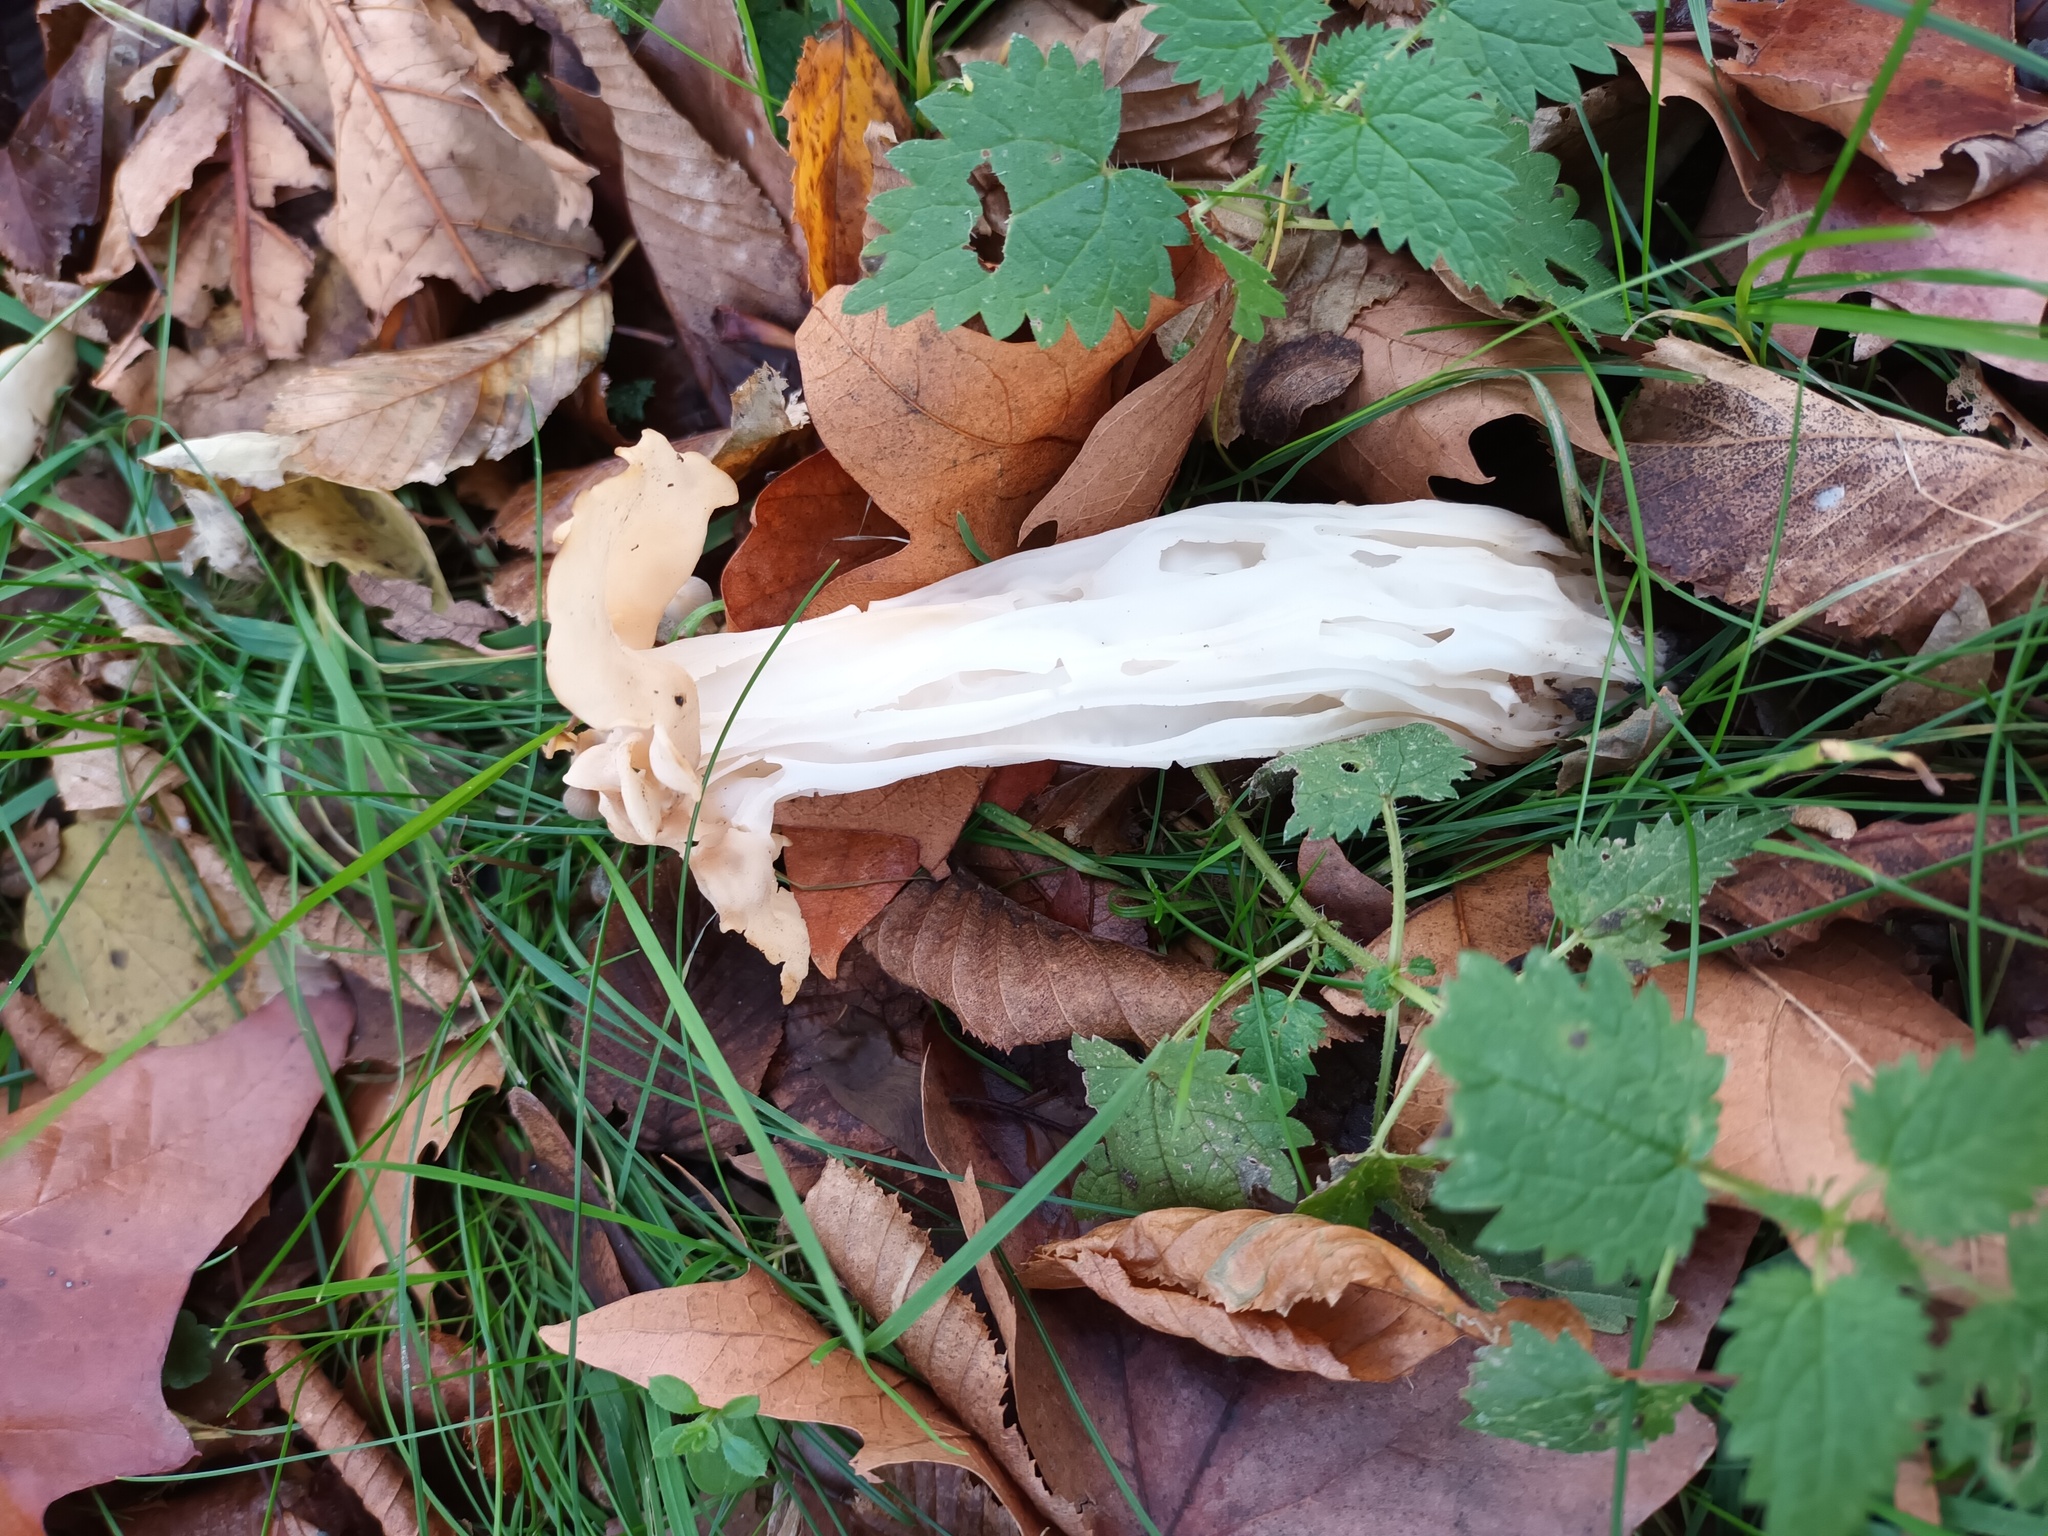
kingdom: Fungi
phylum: Ascomycota
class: Pezizomycetes
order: Pezizales
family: Helvellaceae
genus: Helvella
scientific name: Helvella crispa
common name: White saddle
